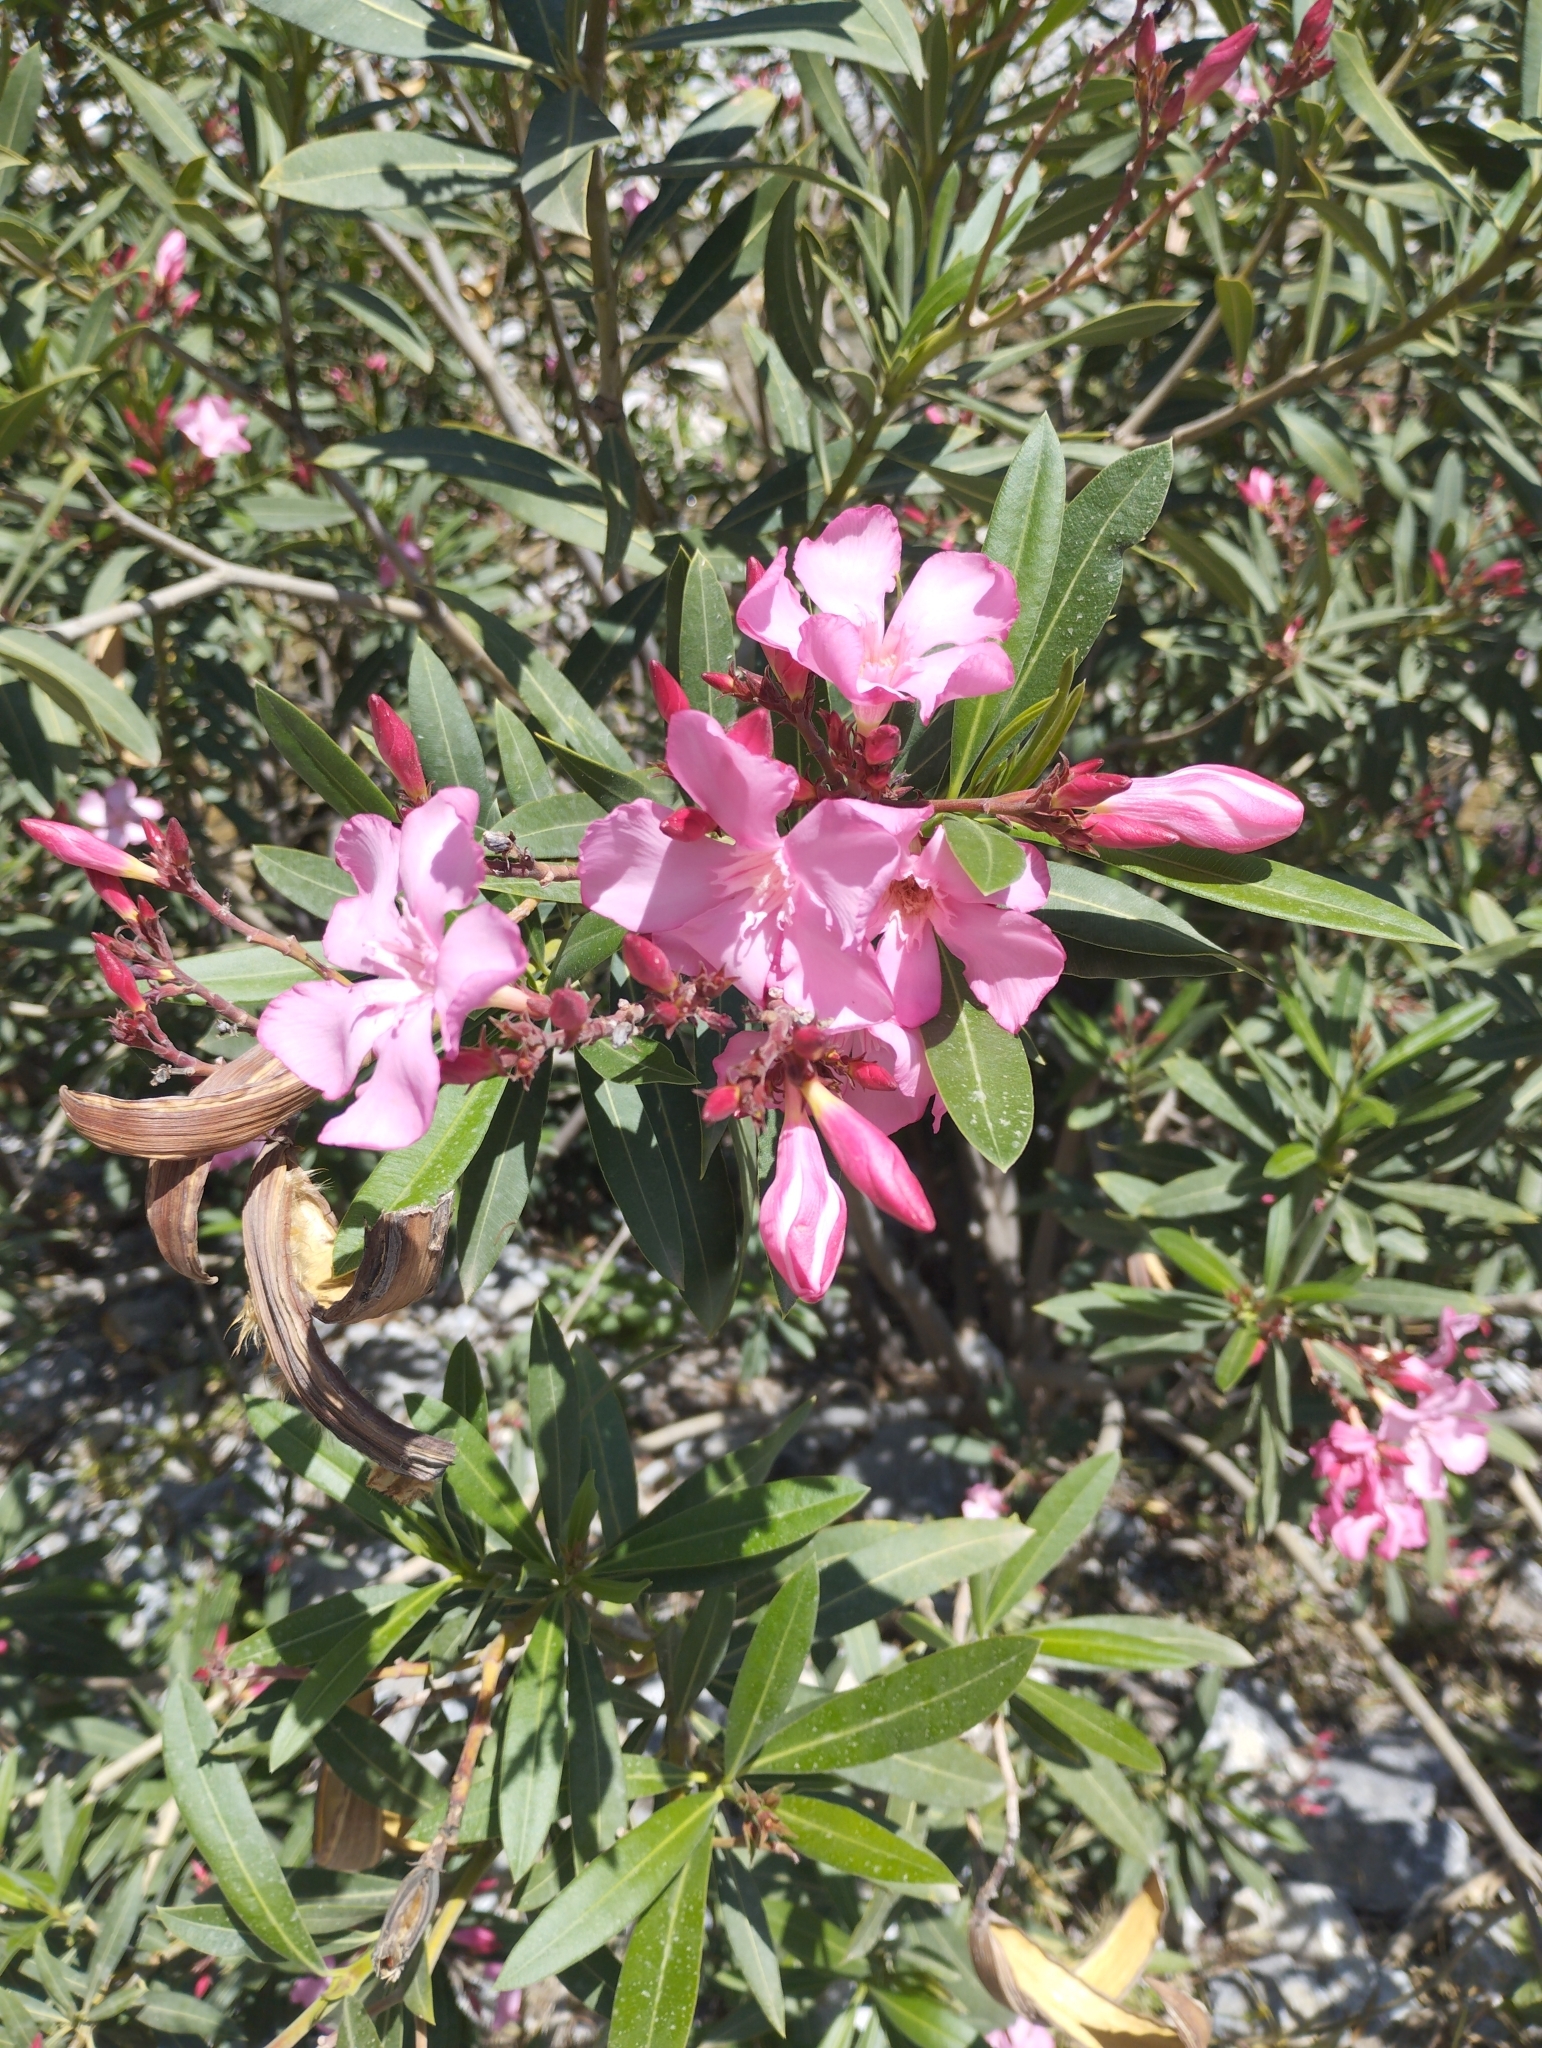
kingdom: Plantae
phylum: Tracheophyta
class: Magnoliopsida
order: Gentianales
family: Apocynaceae
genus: Nerium
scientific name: Nerium oleander
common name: Oleander
